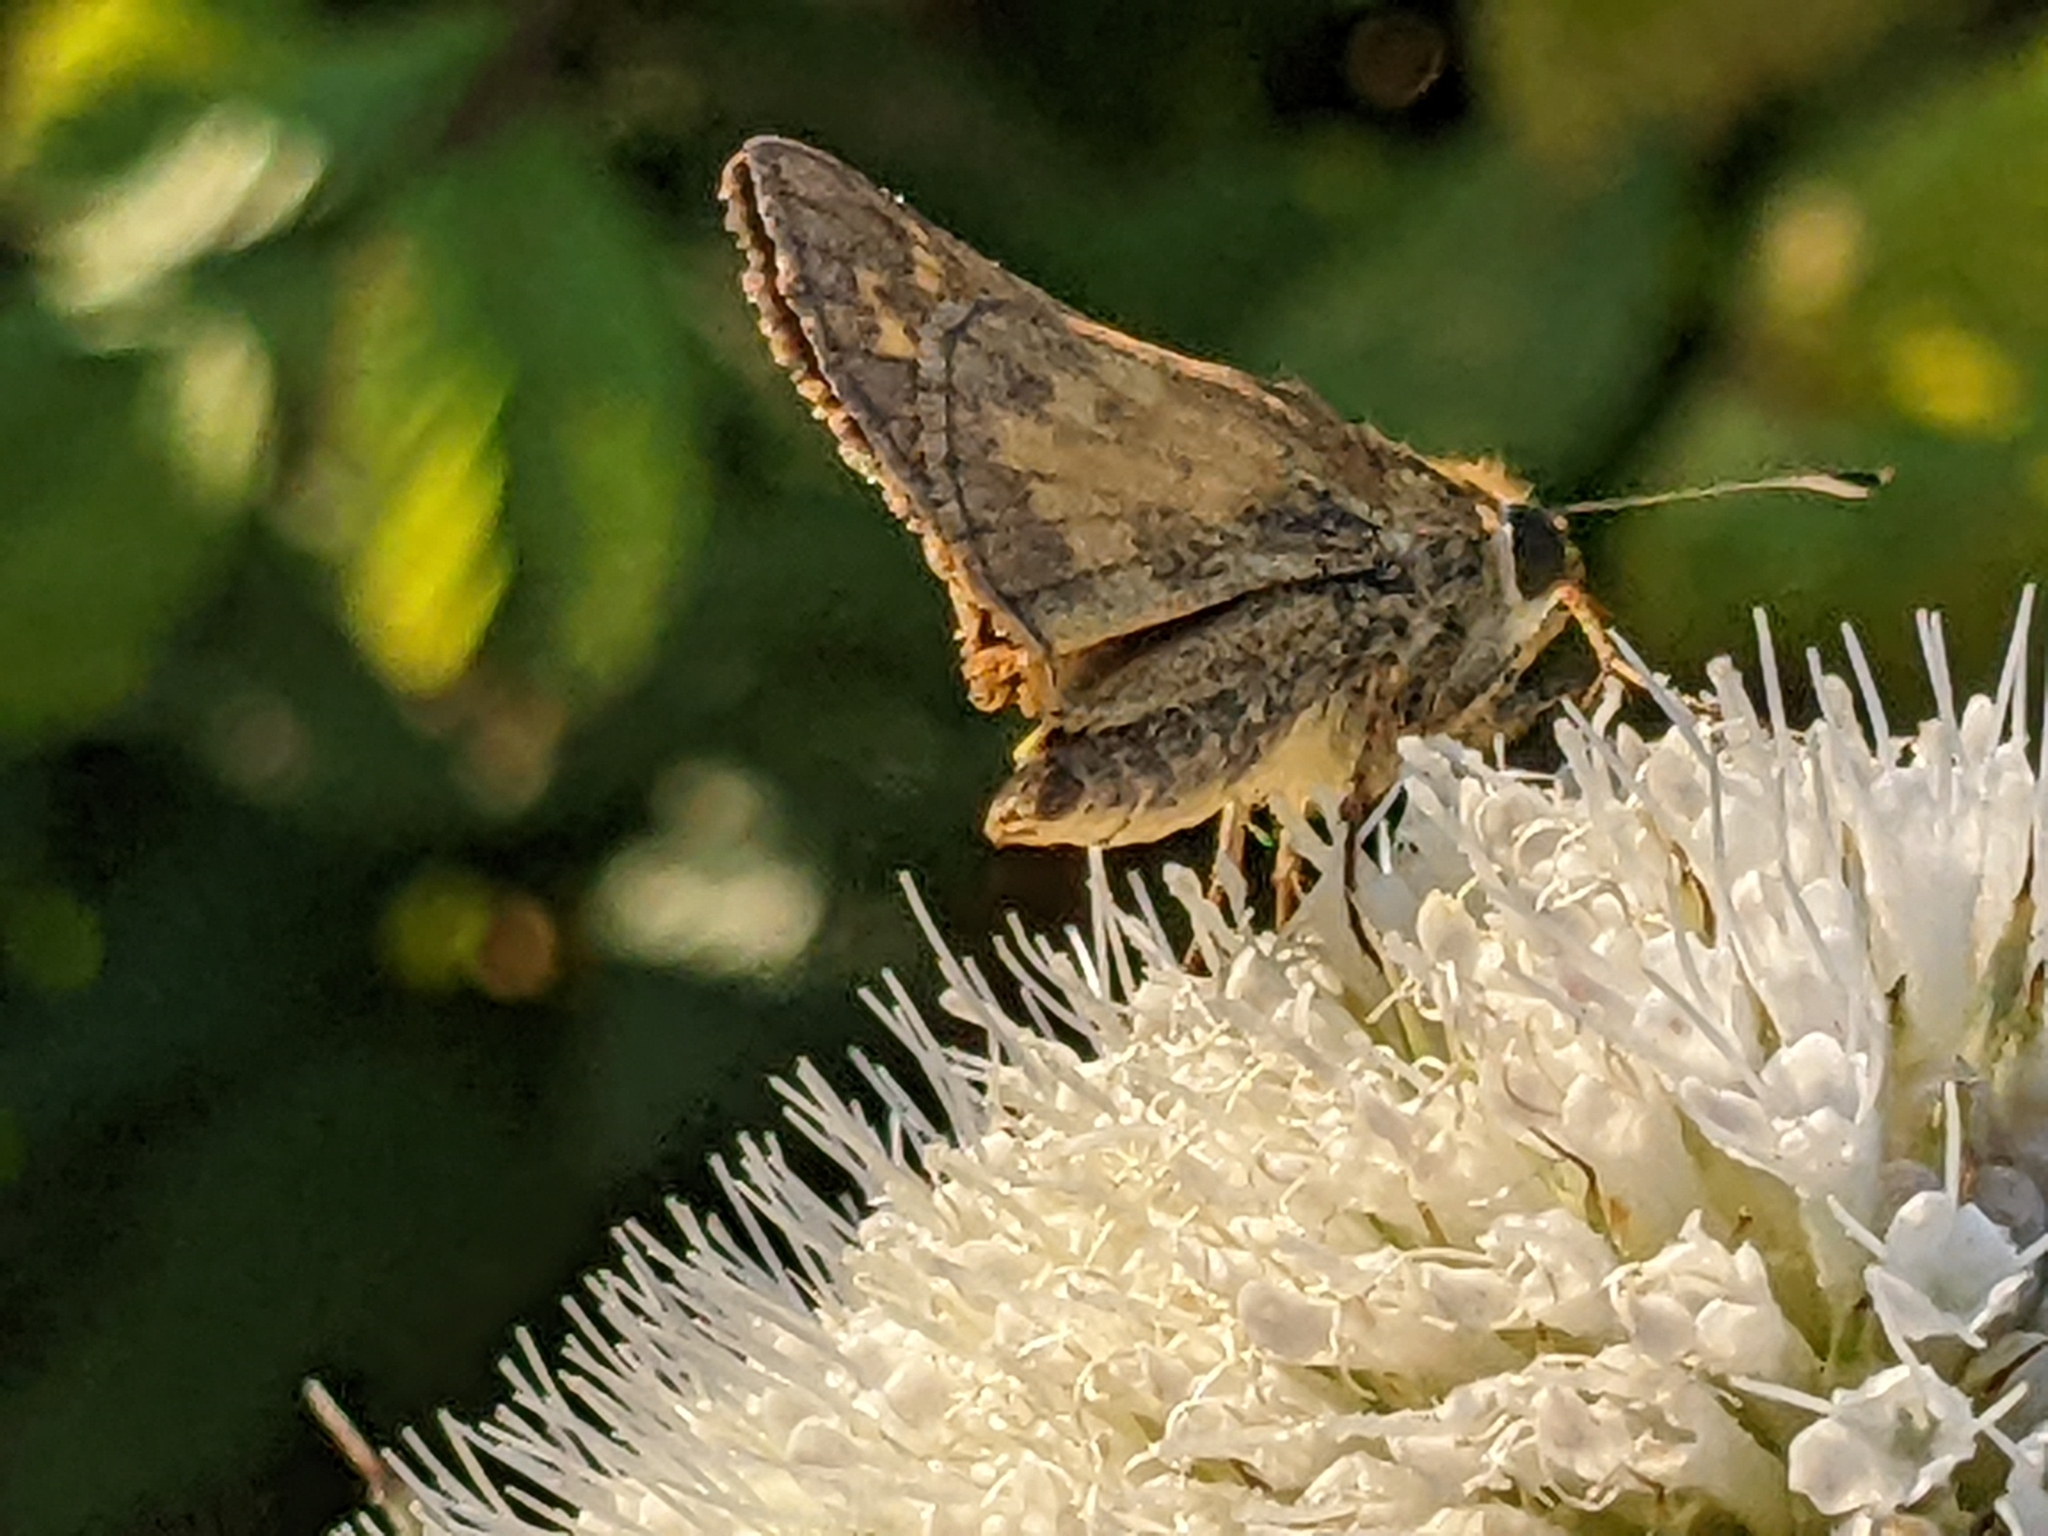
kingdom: Animalia
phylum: Arthropoda
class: Insecta
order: Lepidoptera
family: Hesperiidae
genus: Atalopedes
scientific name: Atalopedes
